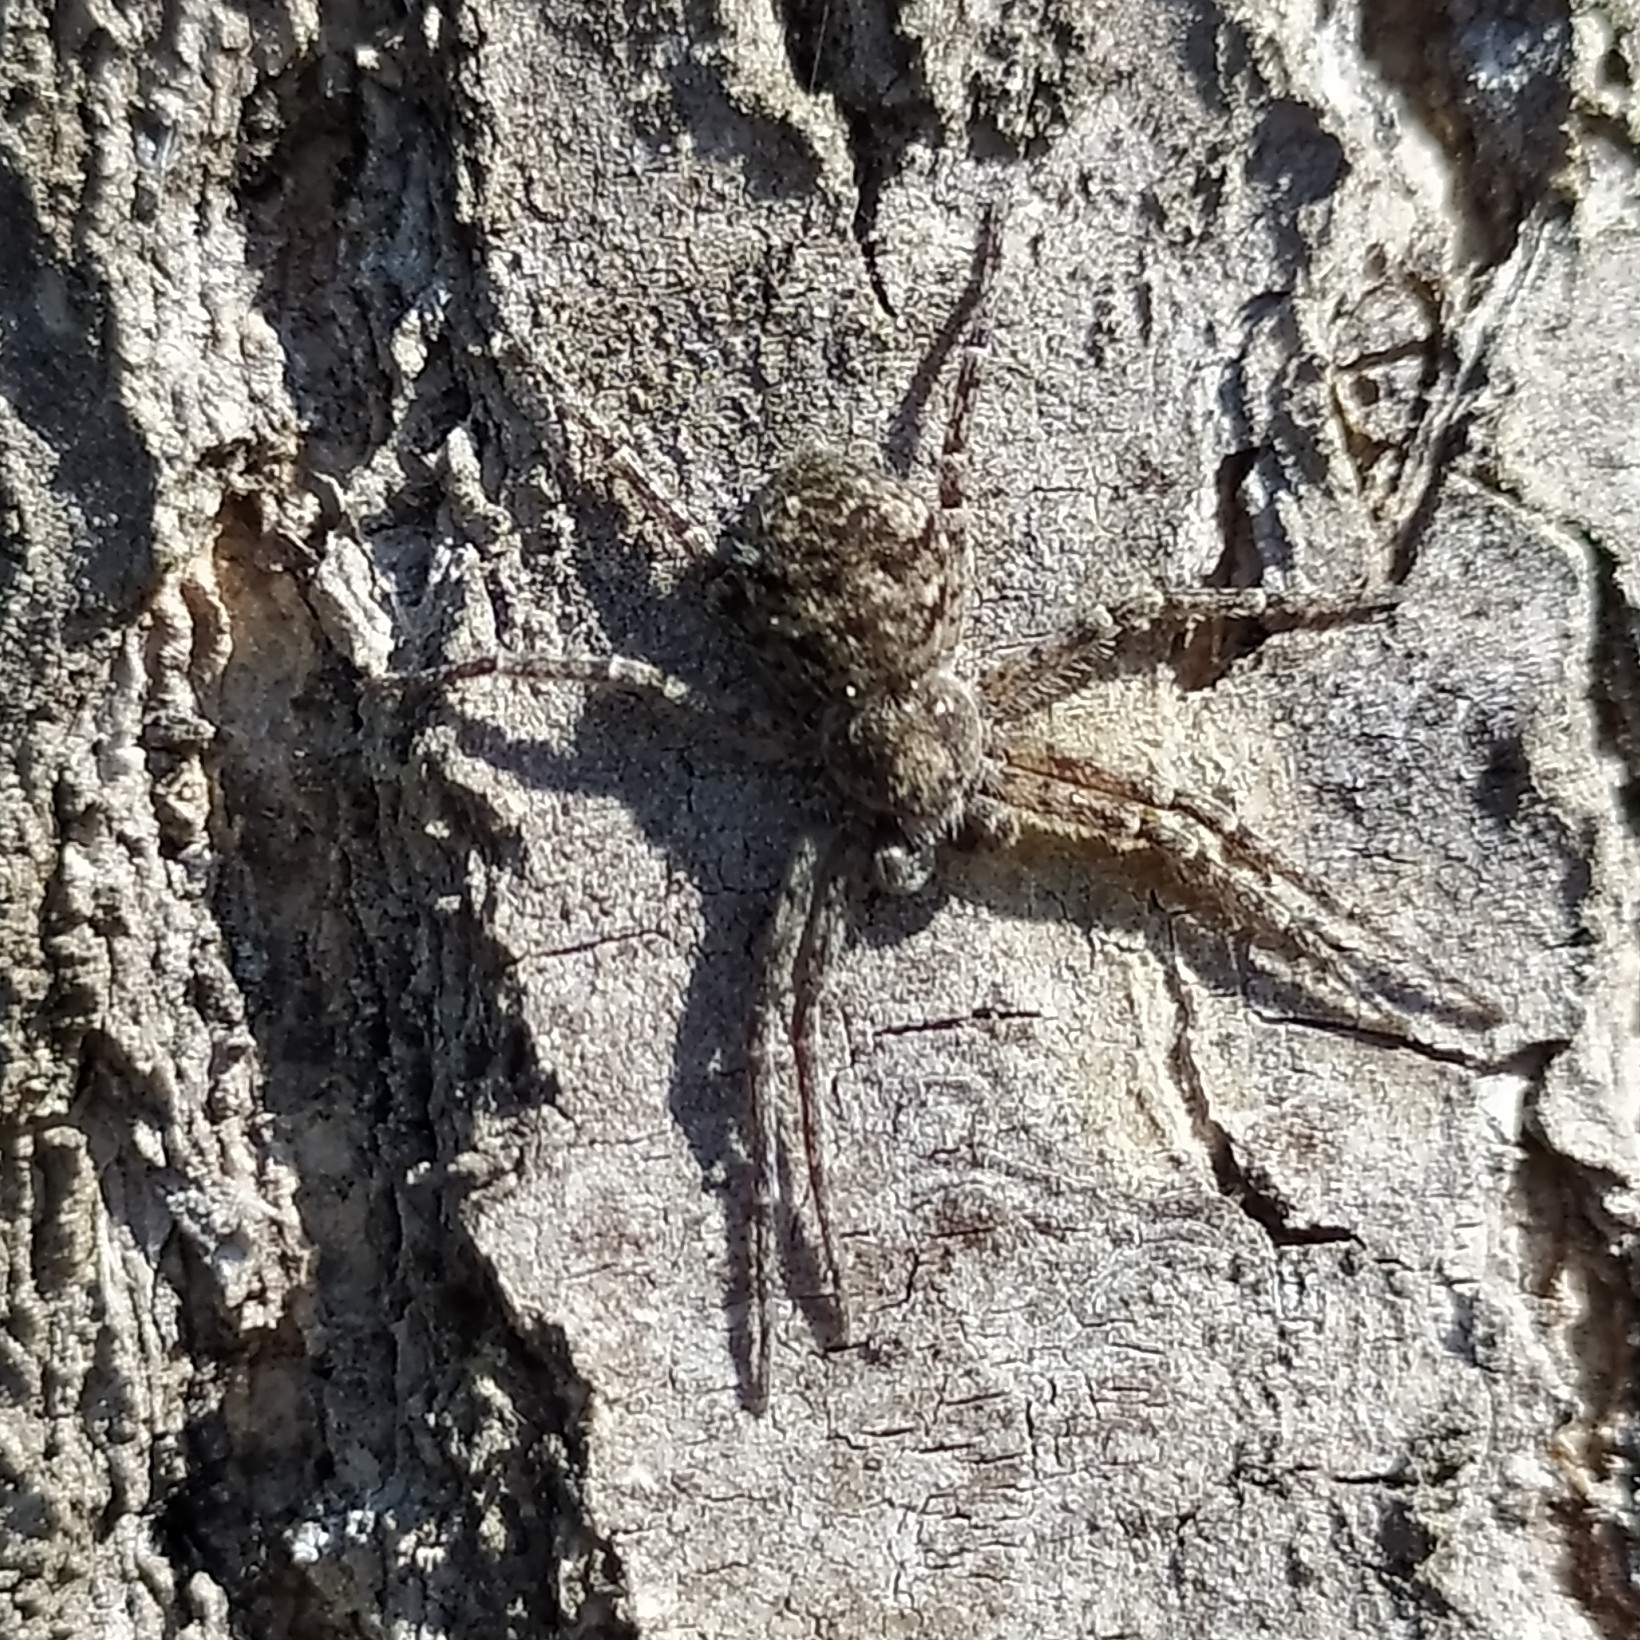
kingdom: Animalia
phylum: Arthropoda
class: Arachnida
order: Araneae
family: Philodromidae
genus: Philodromus
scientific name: Philodromus margaritatus
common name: Lichen running-spider
